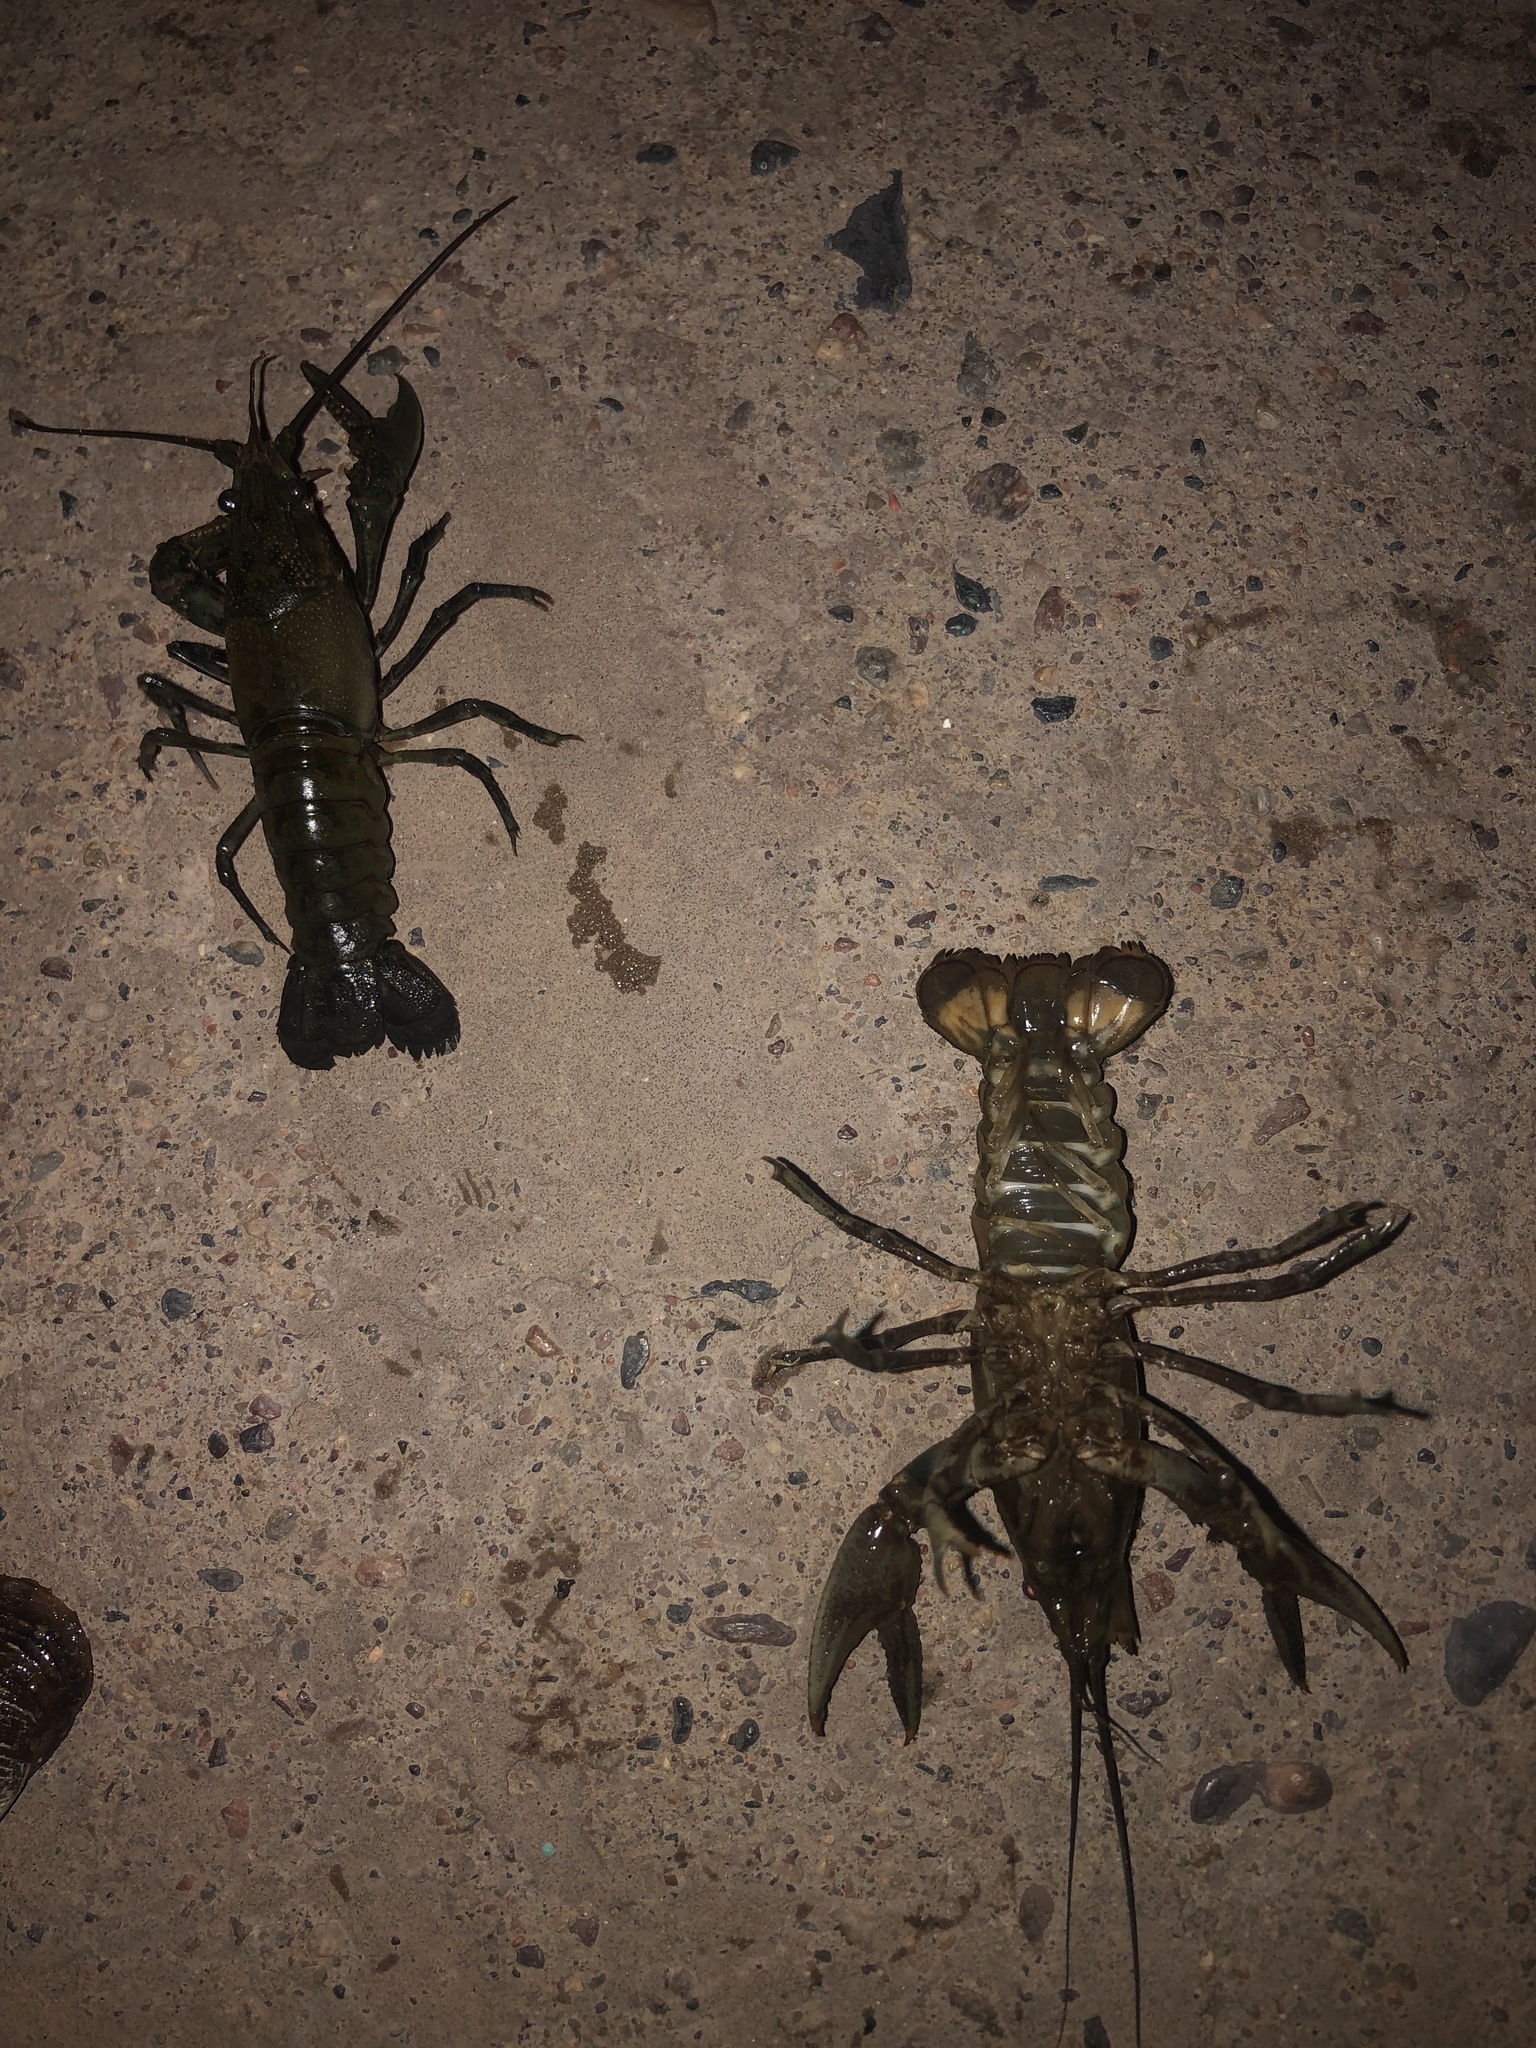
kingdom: Animalia
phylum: Arthropoda
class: Malacostraca
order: Decapoda
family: Cambaridae
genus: Faxonius
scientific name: Faxonius virilis
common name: Virile crayfish
